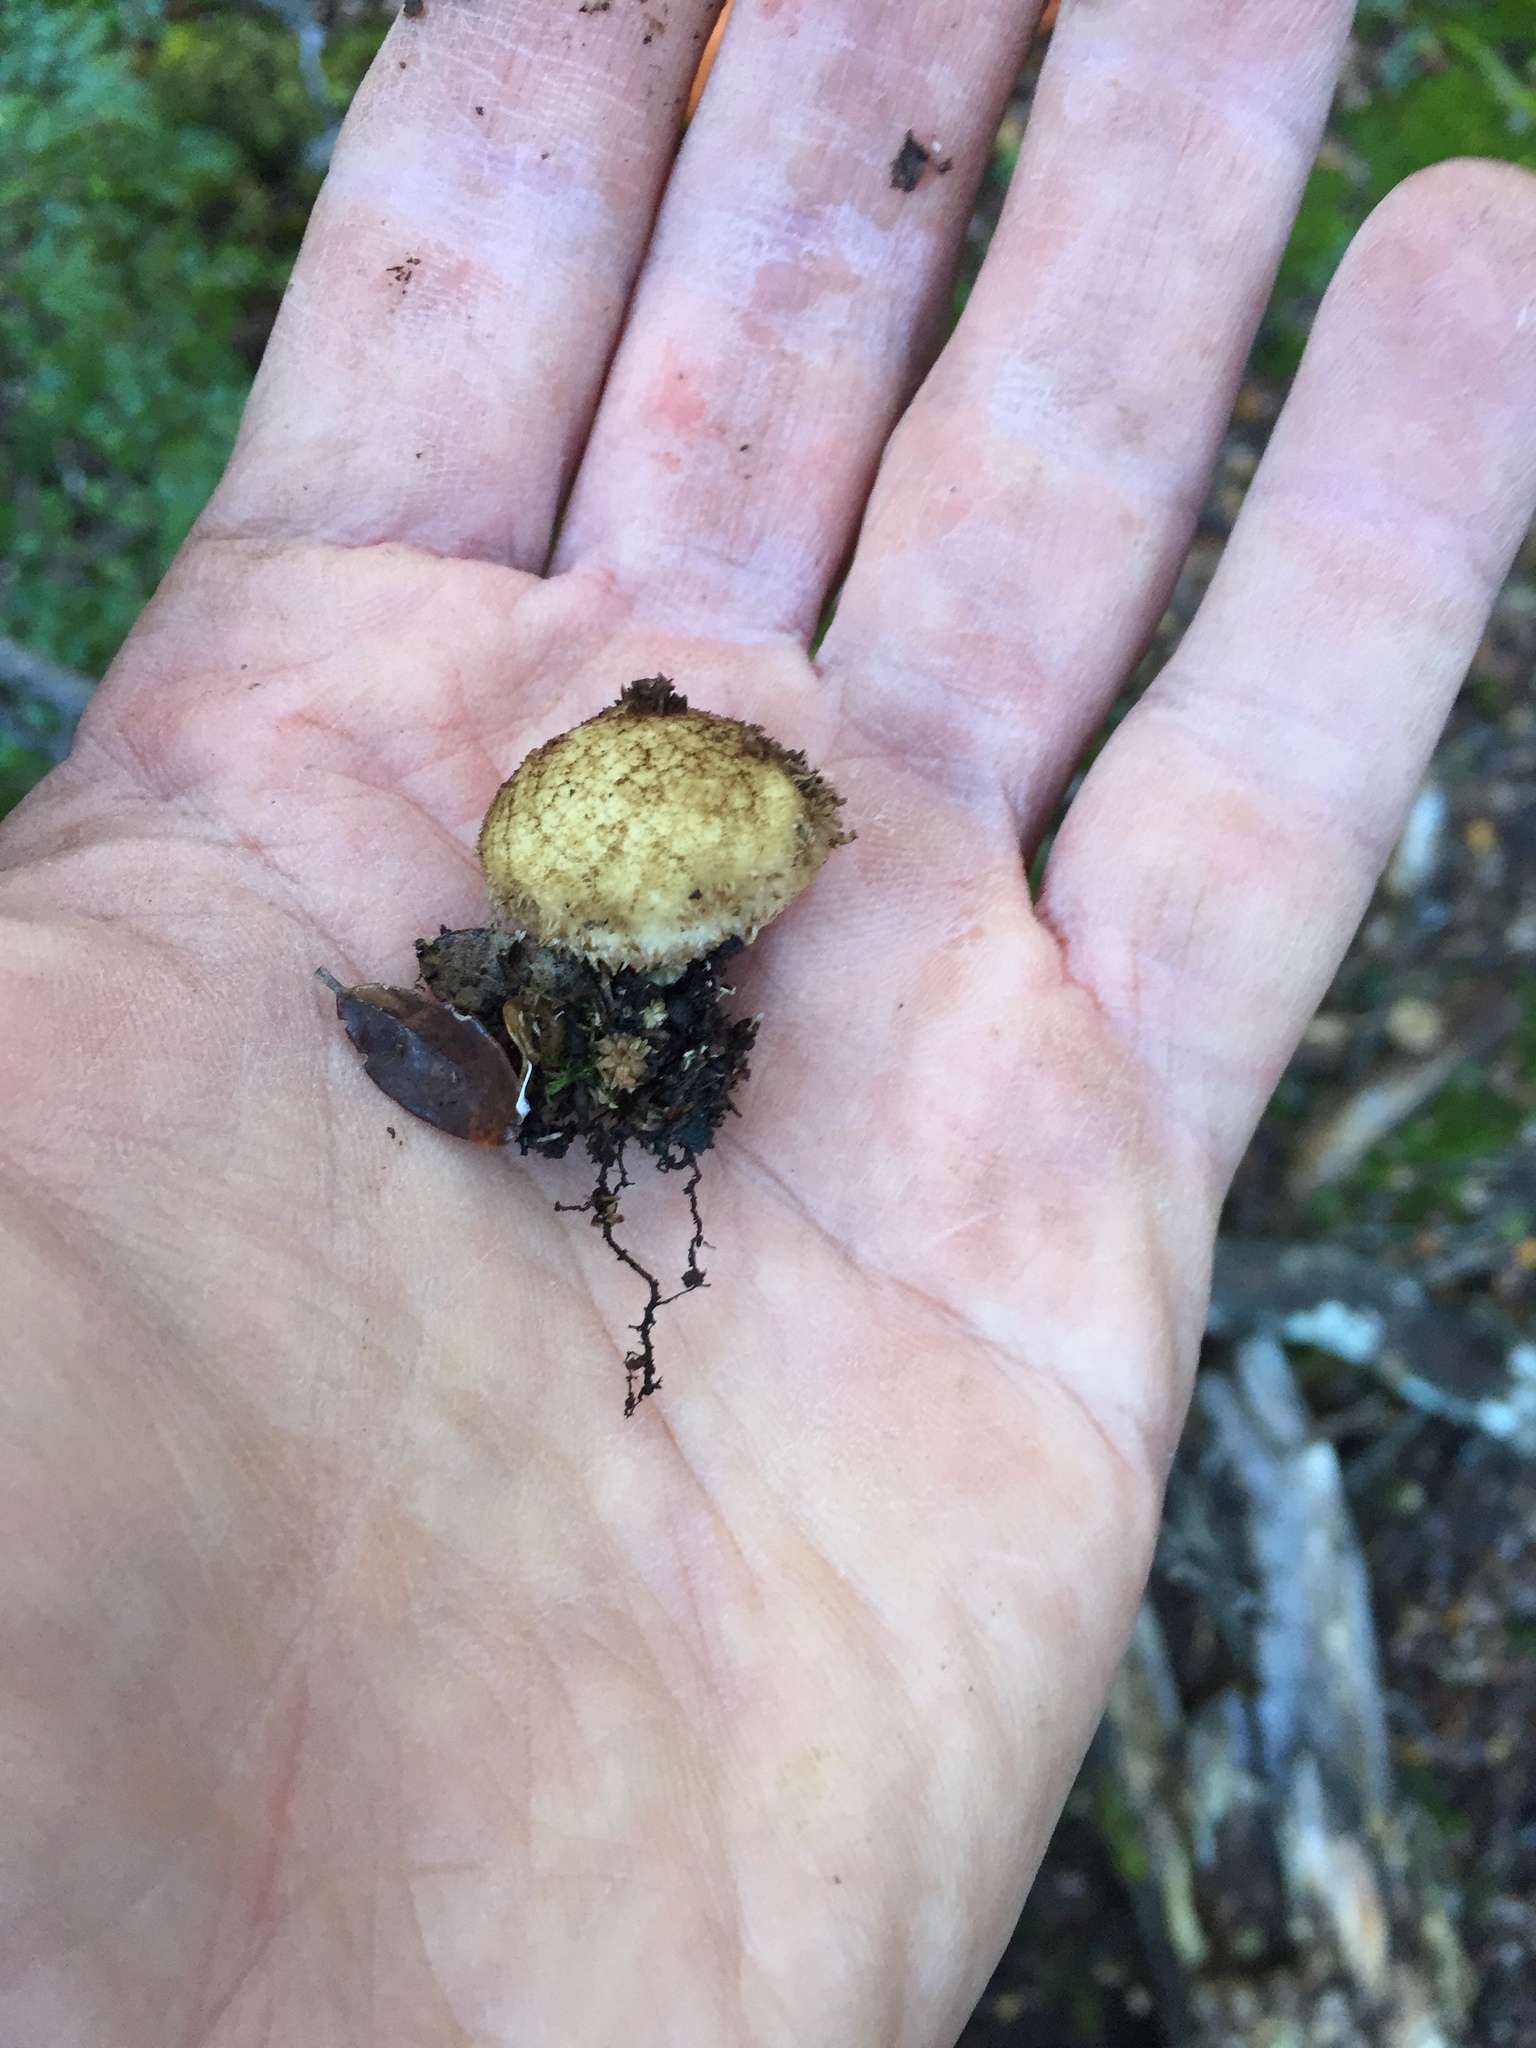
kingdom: Fungi
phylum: Basidiomycota
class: Agaricomycetes
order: Agaricales
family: Lycoperdaceae
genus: Lycoperdon
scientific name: Lycoperdon compactum
